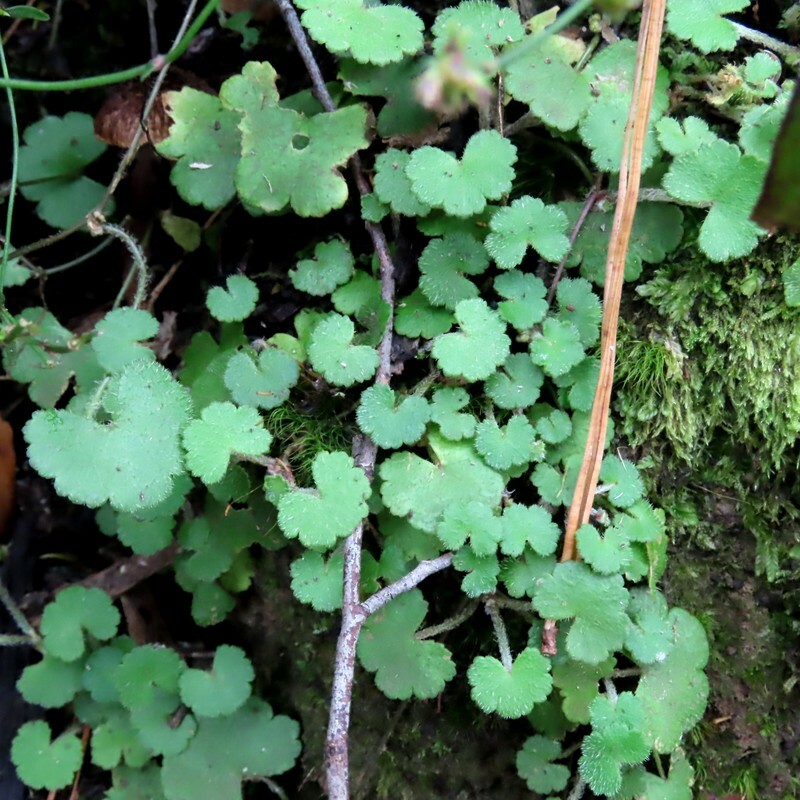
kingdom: Plantae
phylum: Tracheophyta
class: Magnoliopsida
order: Apiales
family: Araliaceae
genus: Hydrocotyle
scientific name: Hydrocotyle hirta
